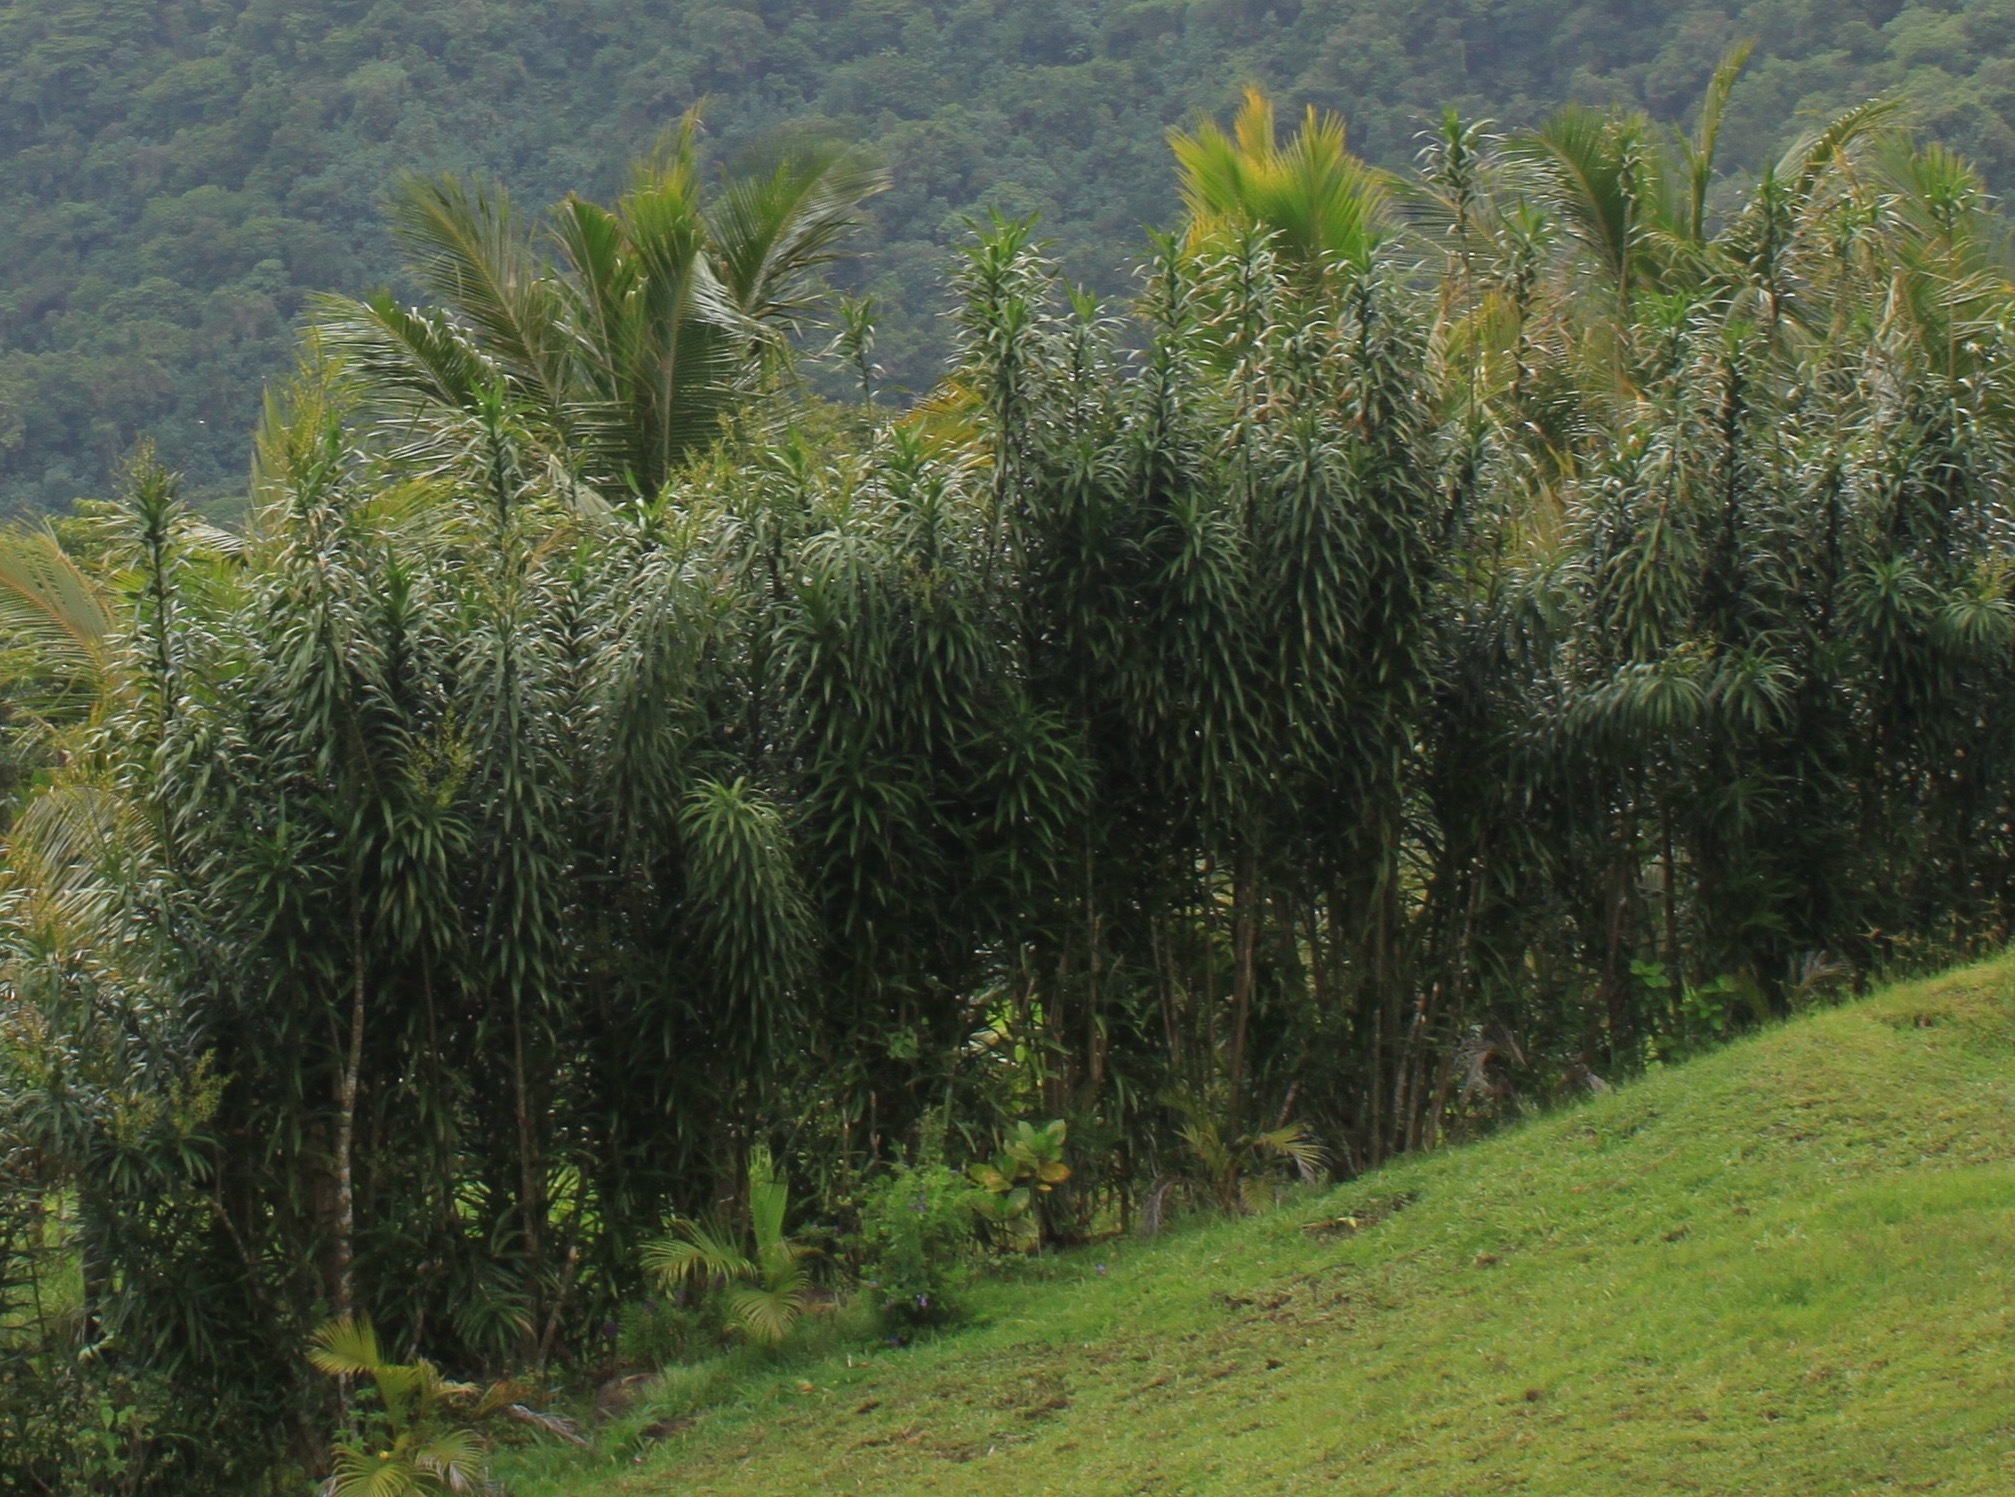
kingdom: Plantae
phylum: Tracheophyta
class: Liliopsida
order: Asparagales
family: Asparagaceae
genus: Dracaena
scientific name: Dracaena angustifolia
